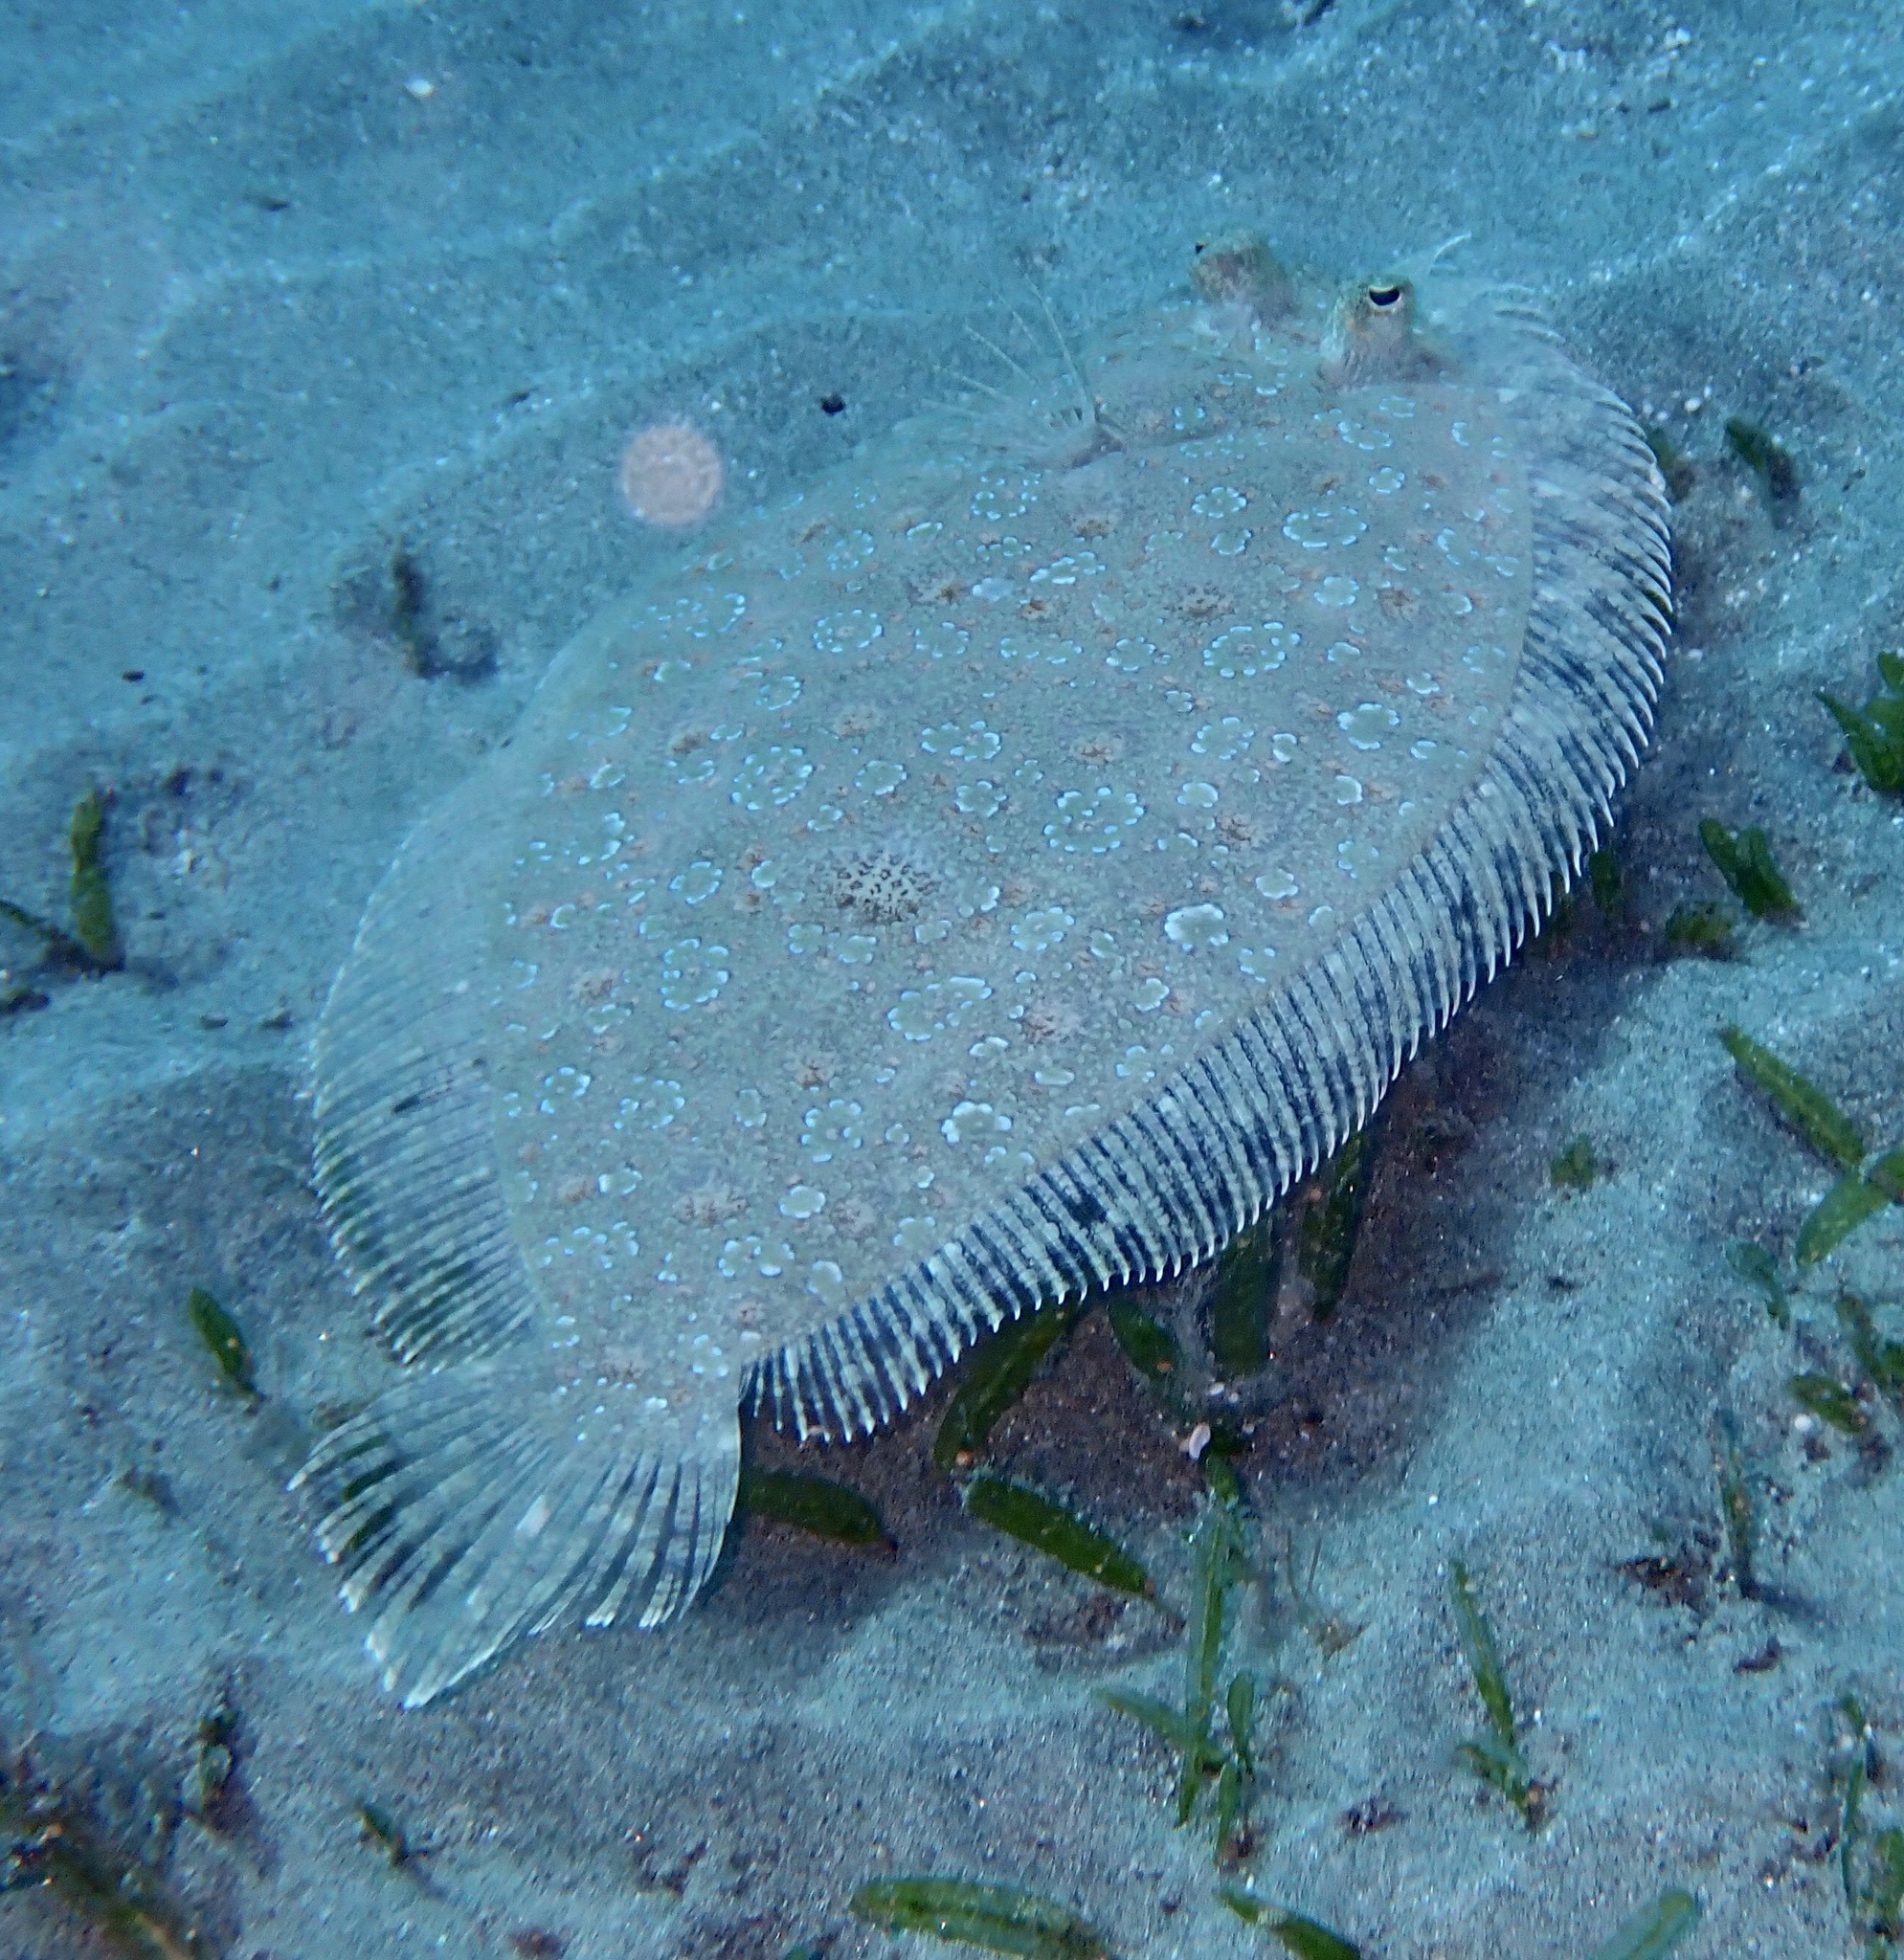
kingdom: Animalia
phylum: Chordata
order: Pleuronectiformes
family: Bothidae
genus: Bothus
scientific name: Bothus pantherinus
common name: Leopard flounder
